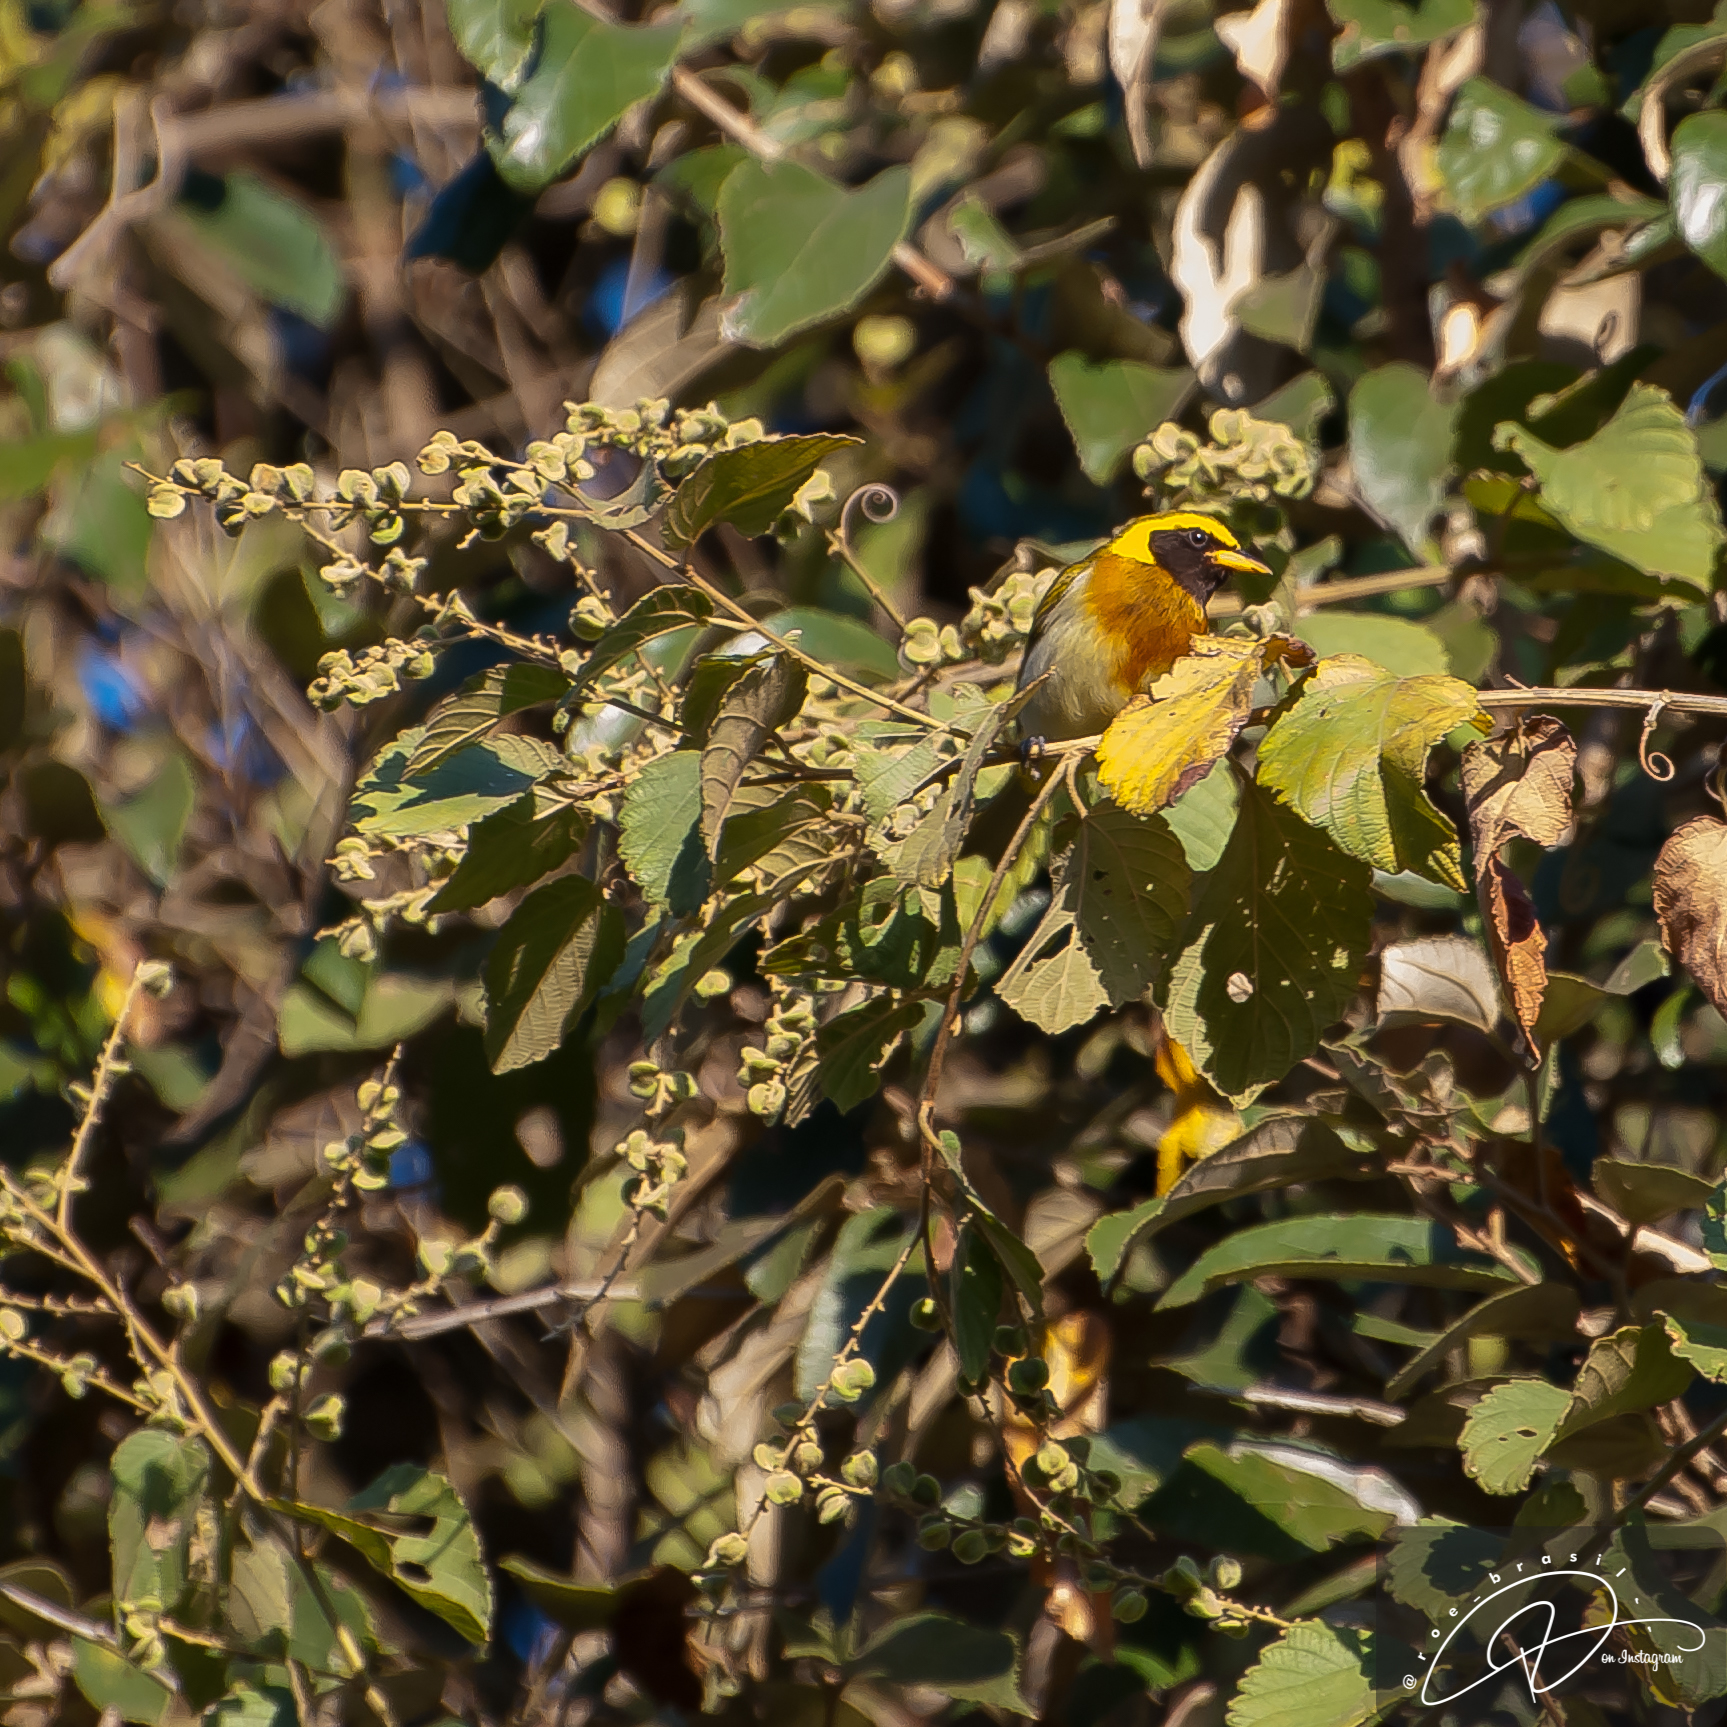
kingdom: Animalia
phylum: Chordata
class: Aves
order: Passeriformes
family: Thraupidae
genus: Hemithraupis
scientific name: Hemithraupis guira
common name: Guira tanager
